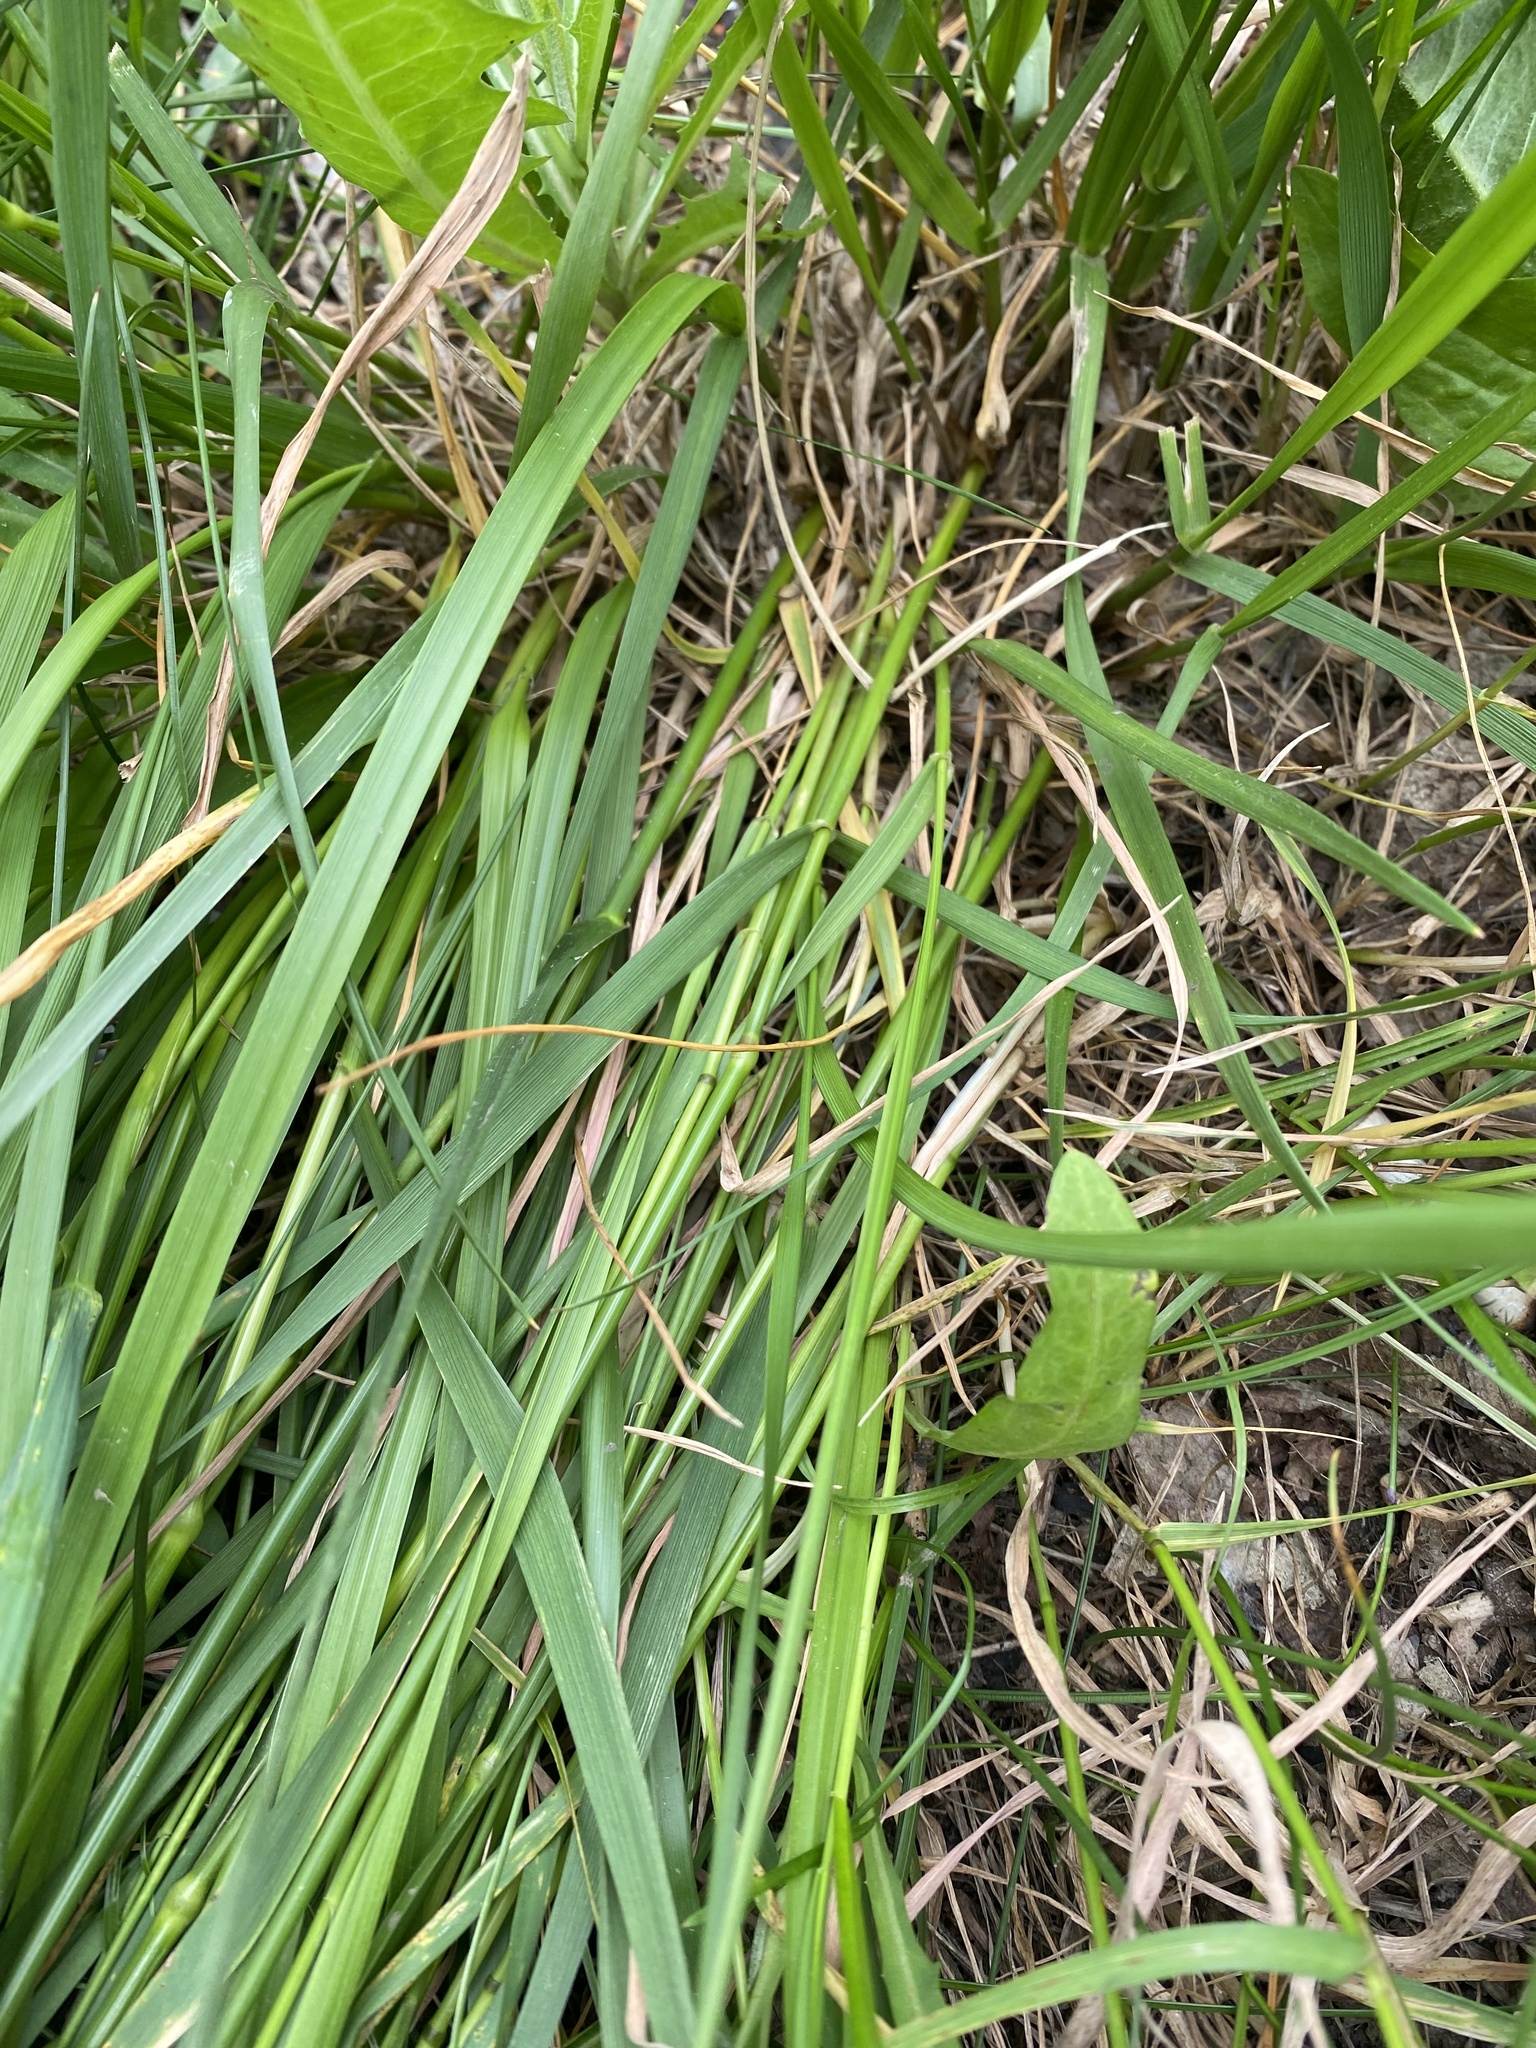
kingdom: Plantae
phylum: Tracheophyta
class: Liliopsida
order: Poales
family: Poaceae
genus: Lolium
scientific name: Lolium arundinaceum
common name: Reed fescue
